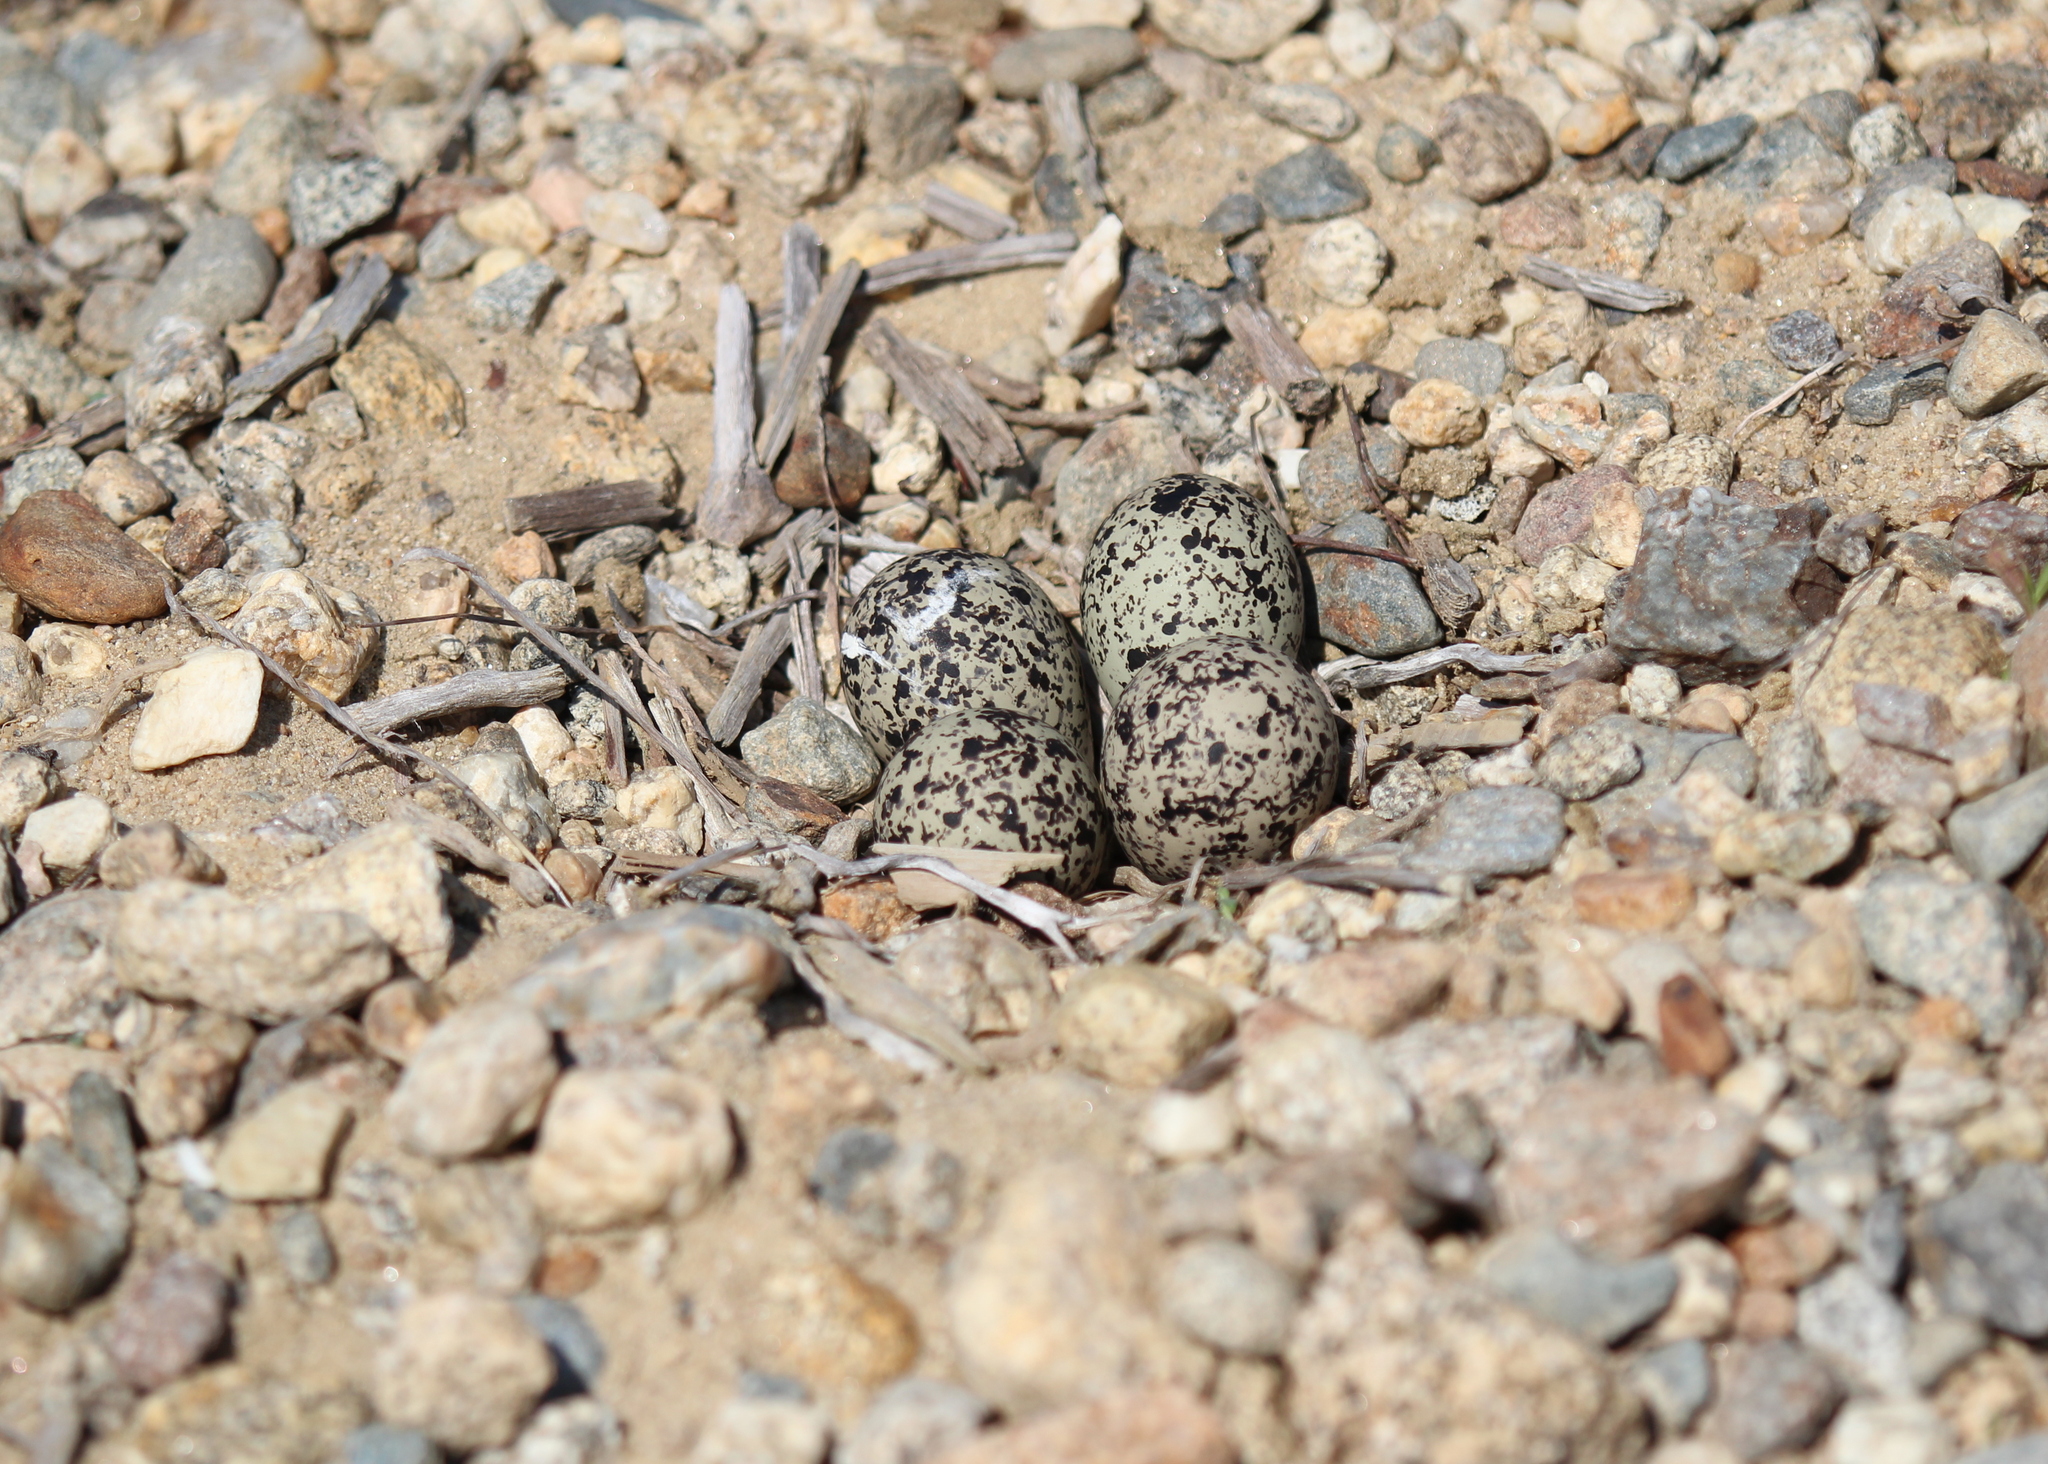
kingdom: Animalia
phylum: Chordata
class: Aves
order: Charadriiformes
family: Charadriidae
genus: Charadrius
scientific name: Charadrius vociferus
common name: Killdeer
